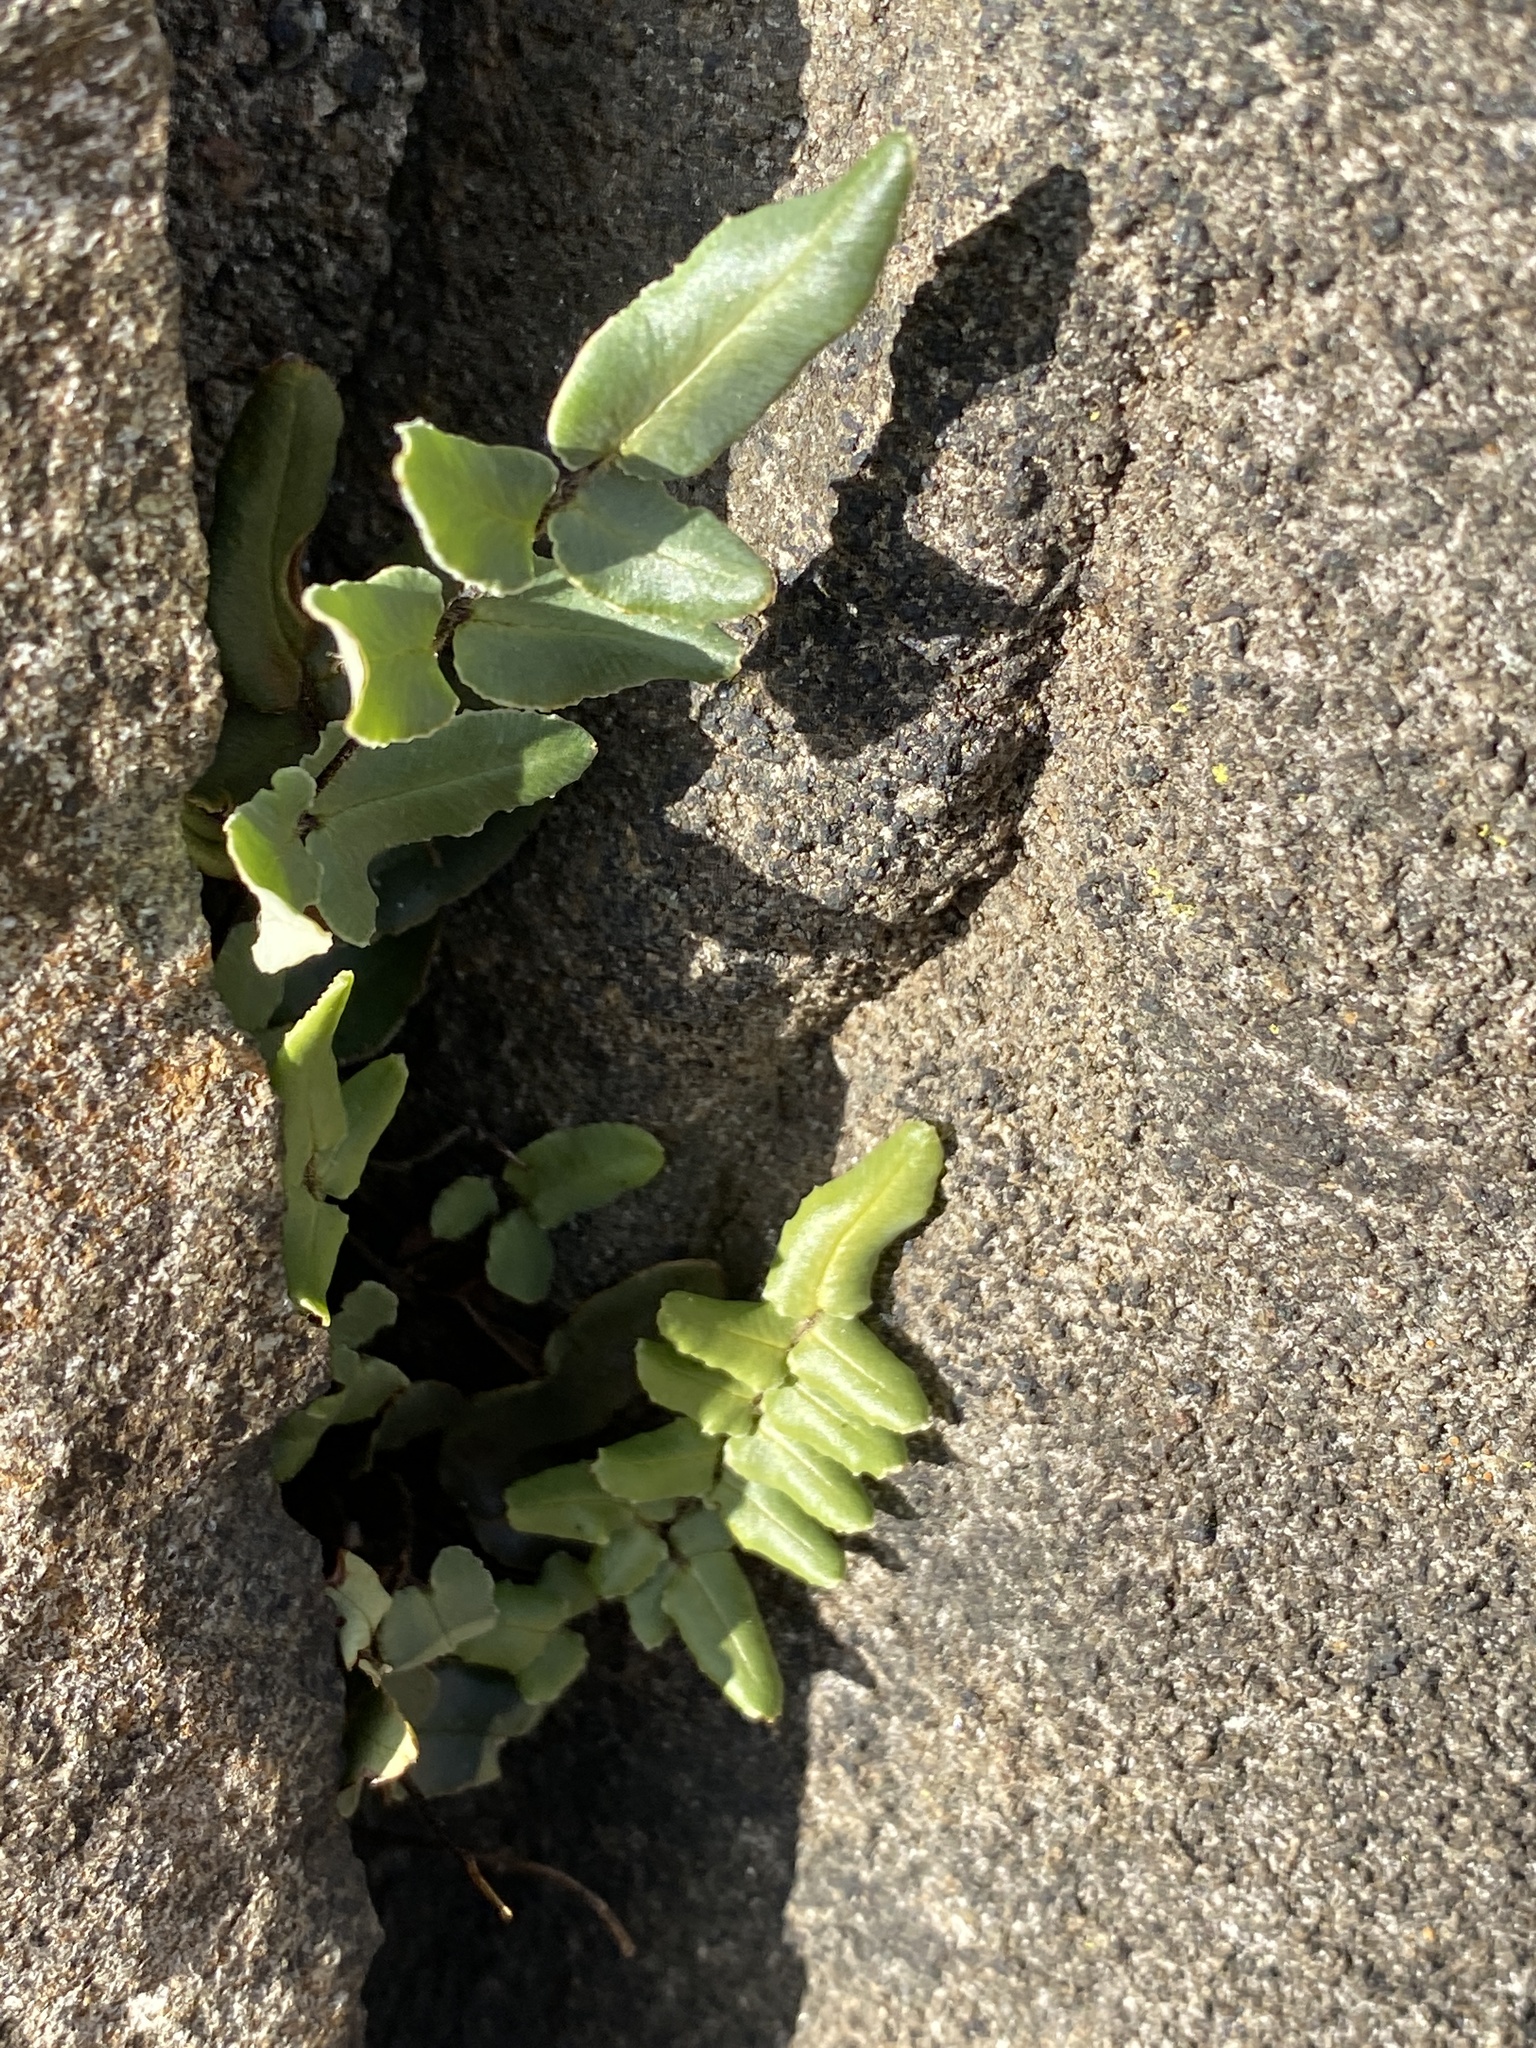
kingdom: Plantae
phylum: Tracheophyta
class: Polypodiopsida
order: Polypodiales
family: Pteridaceae
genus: Pellaea
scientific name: Pellaea atropurpurea
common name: Hairy cliffbrake
